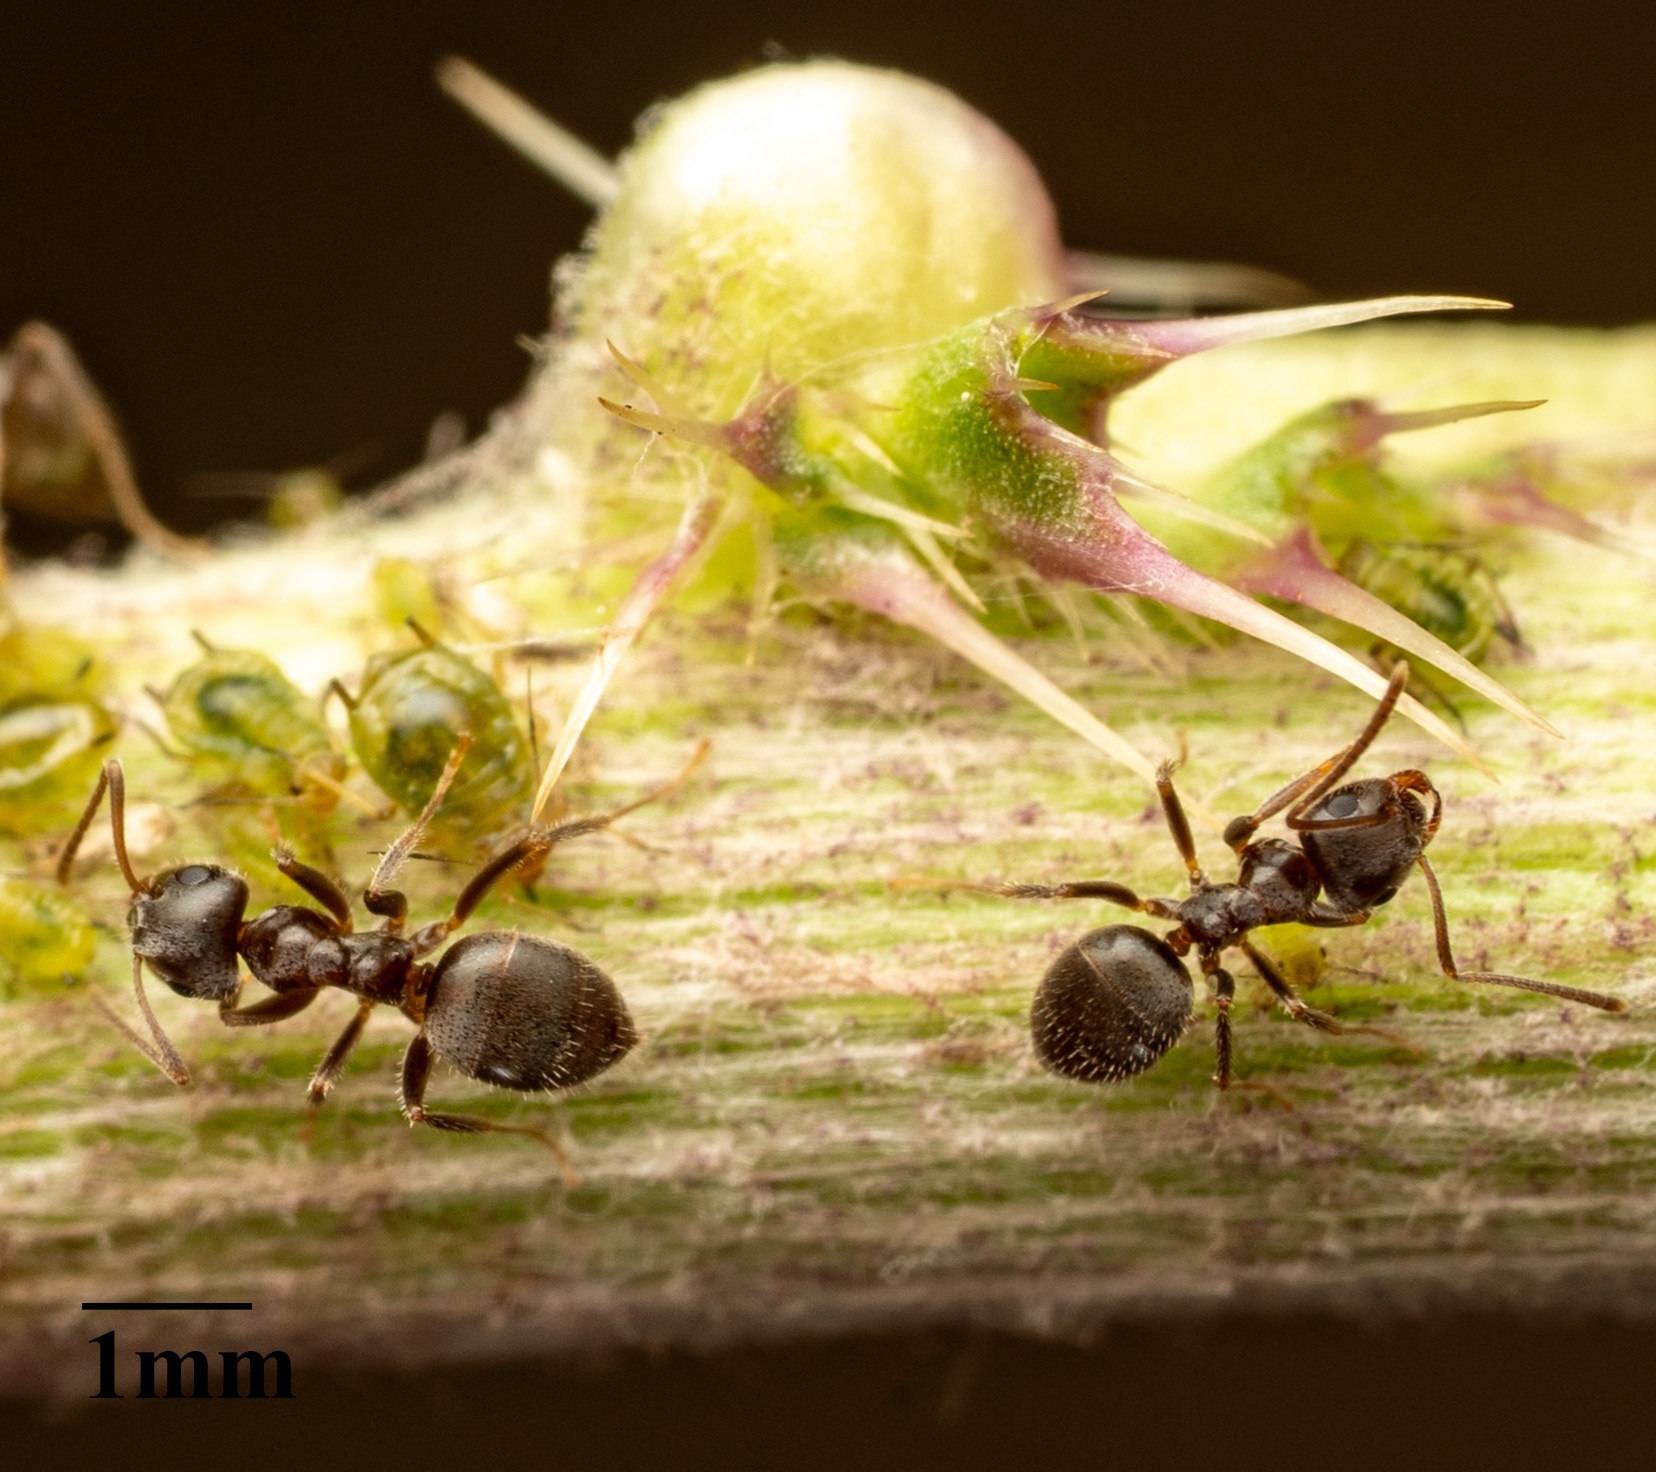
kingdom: Animalia
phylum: Arthropoda
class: Insecta
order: Hymenoptera
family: Formicidae
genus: Lasius
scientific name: Lasius ponderosae
